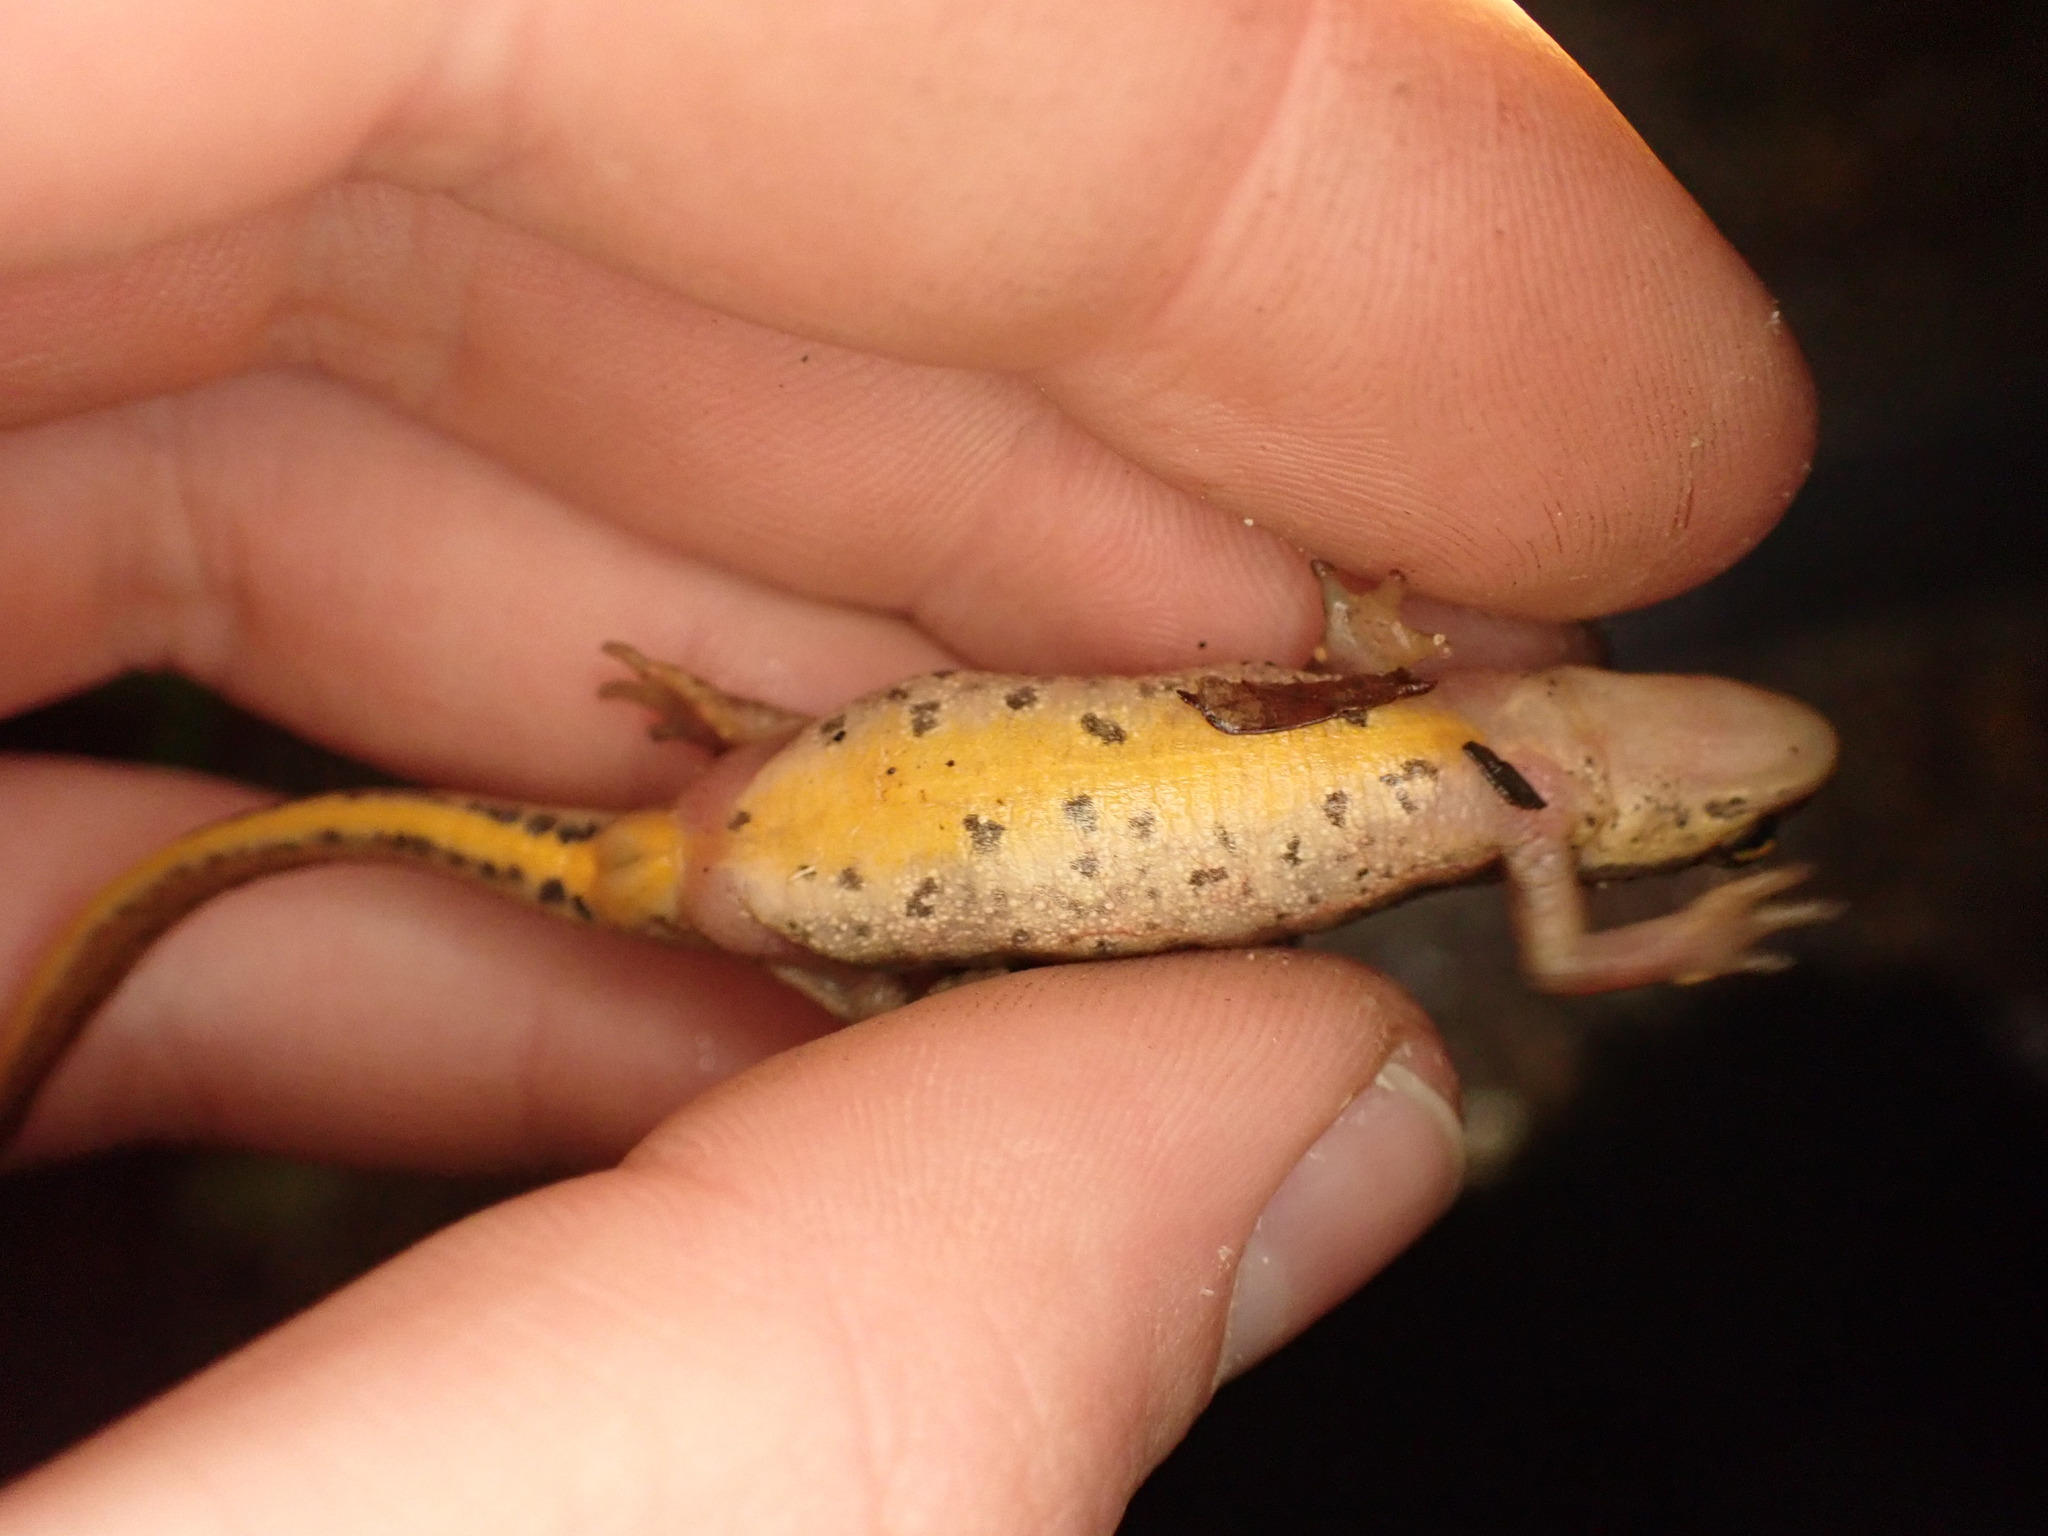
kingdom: Animalia
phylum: Chordata
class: Amphibia
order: Caudata
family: Salamandridae
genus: Lissotriton
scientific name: Lissotriton helveticus
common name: Palmate newt
